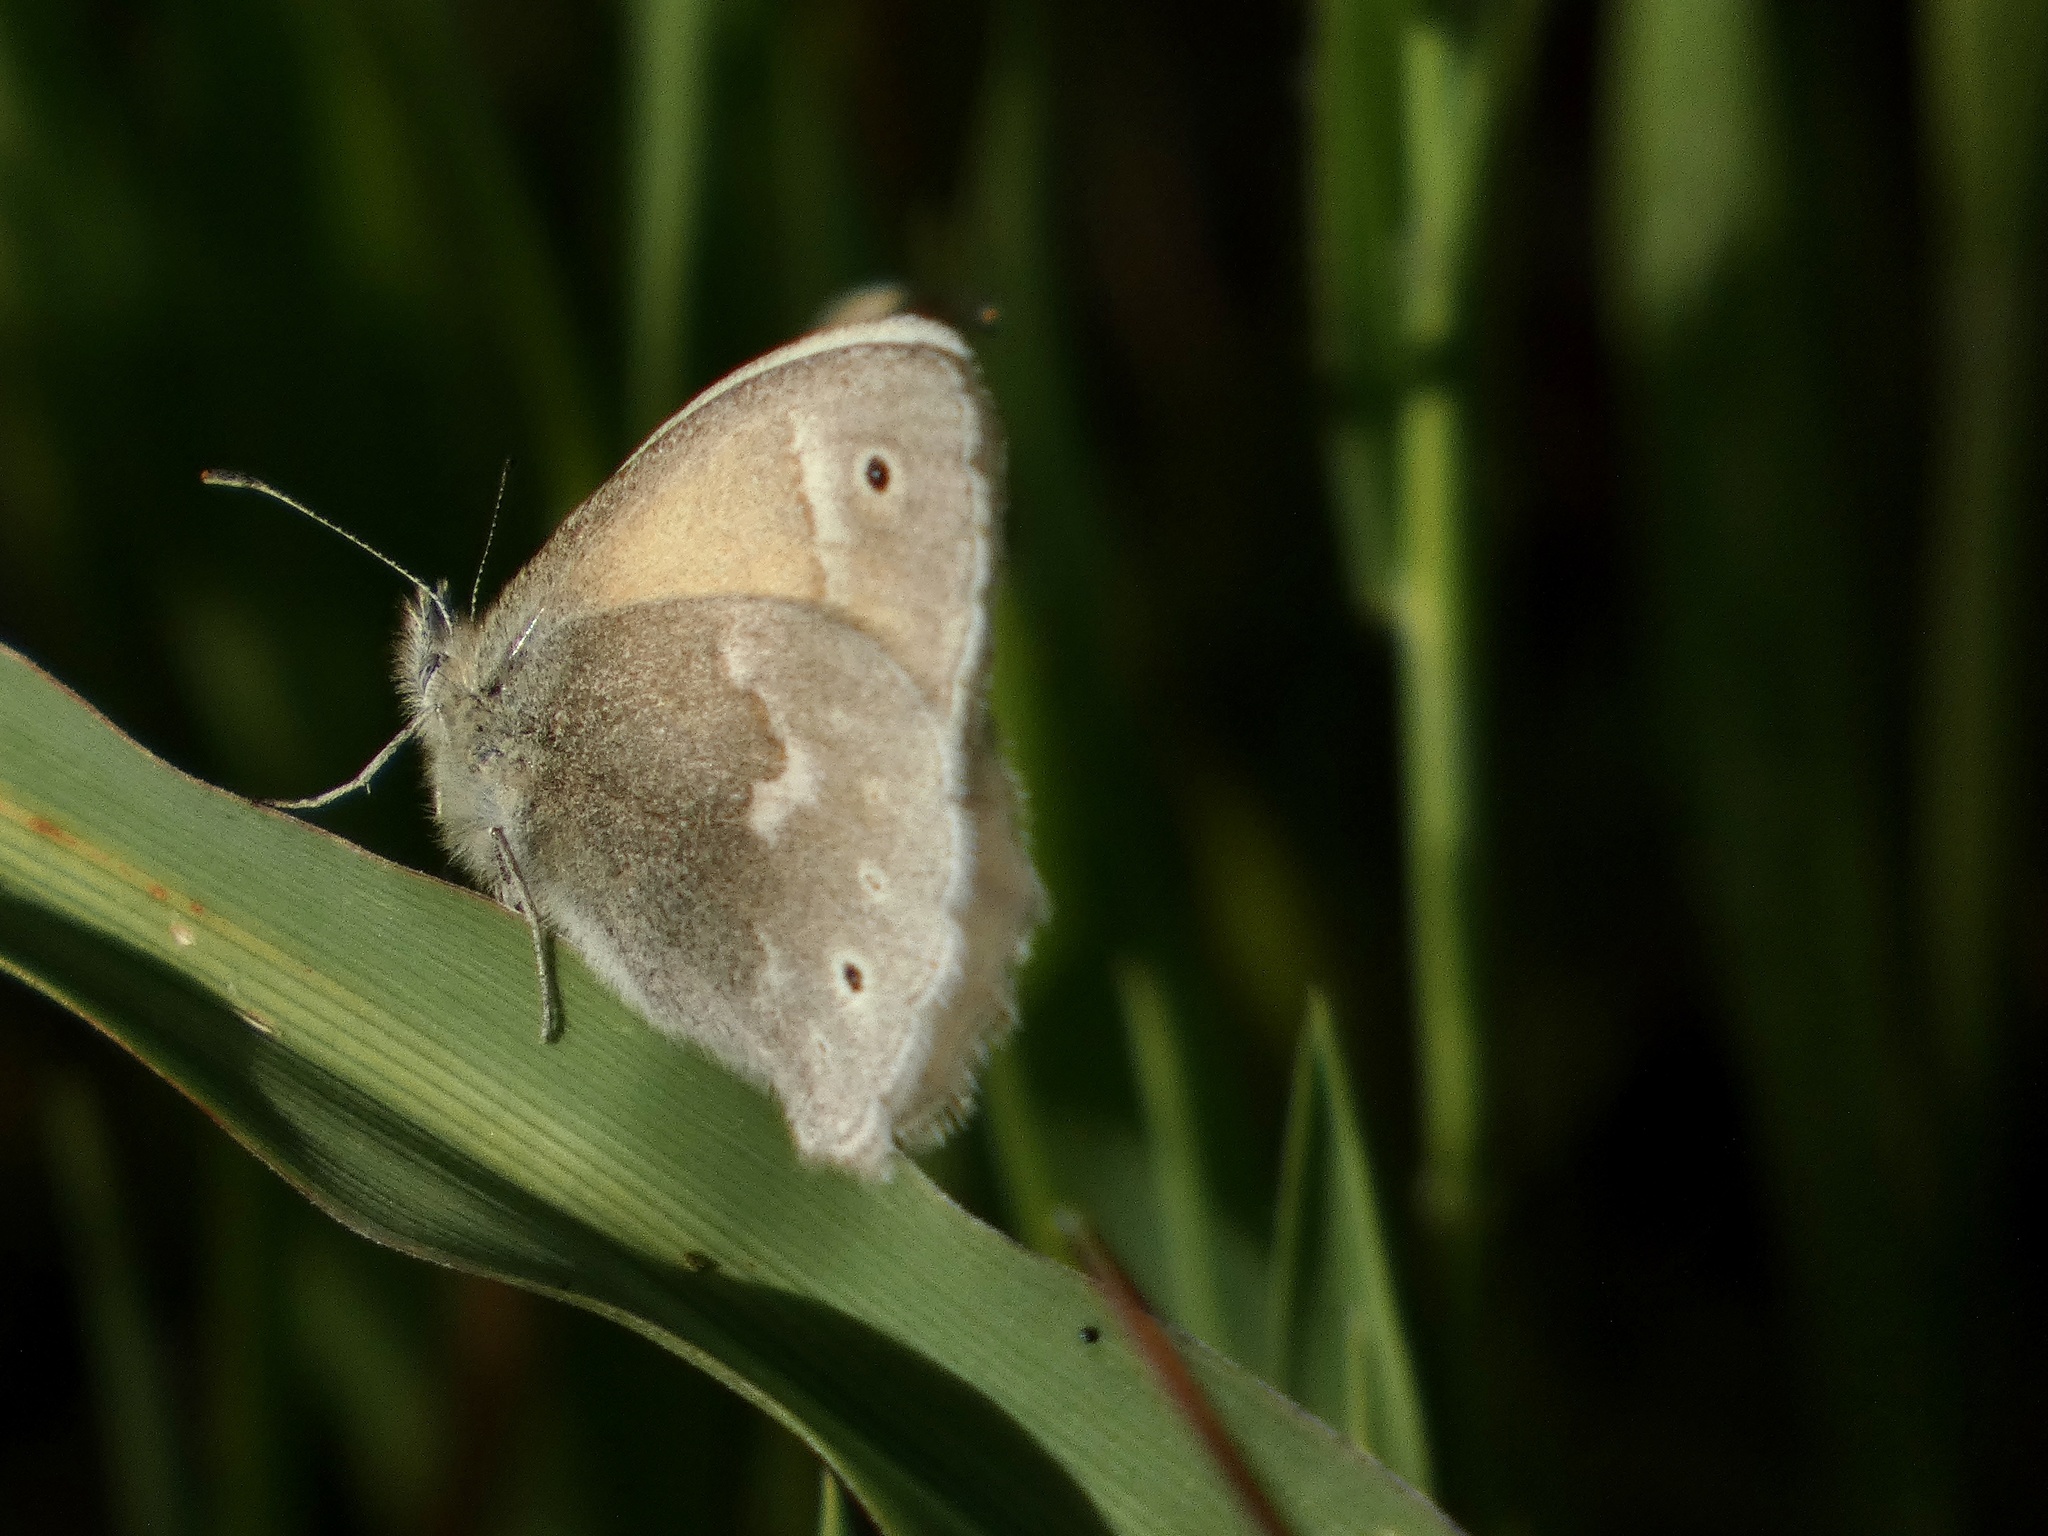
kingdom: Animalia
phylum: Arthropoda
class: Insecta
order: Lepidoptera
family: Nymphalidae
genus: Coenonympha
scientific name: Coenonympha california
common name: Common ringlet
